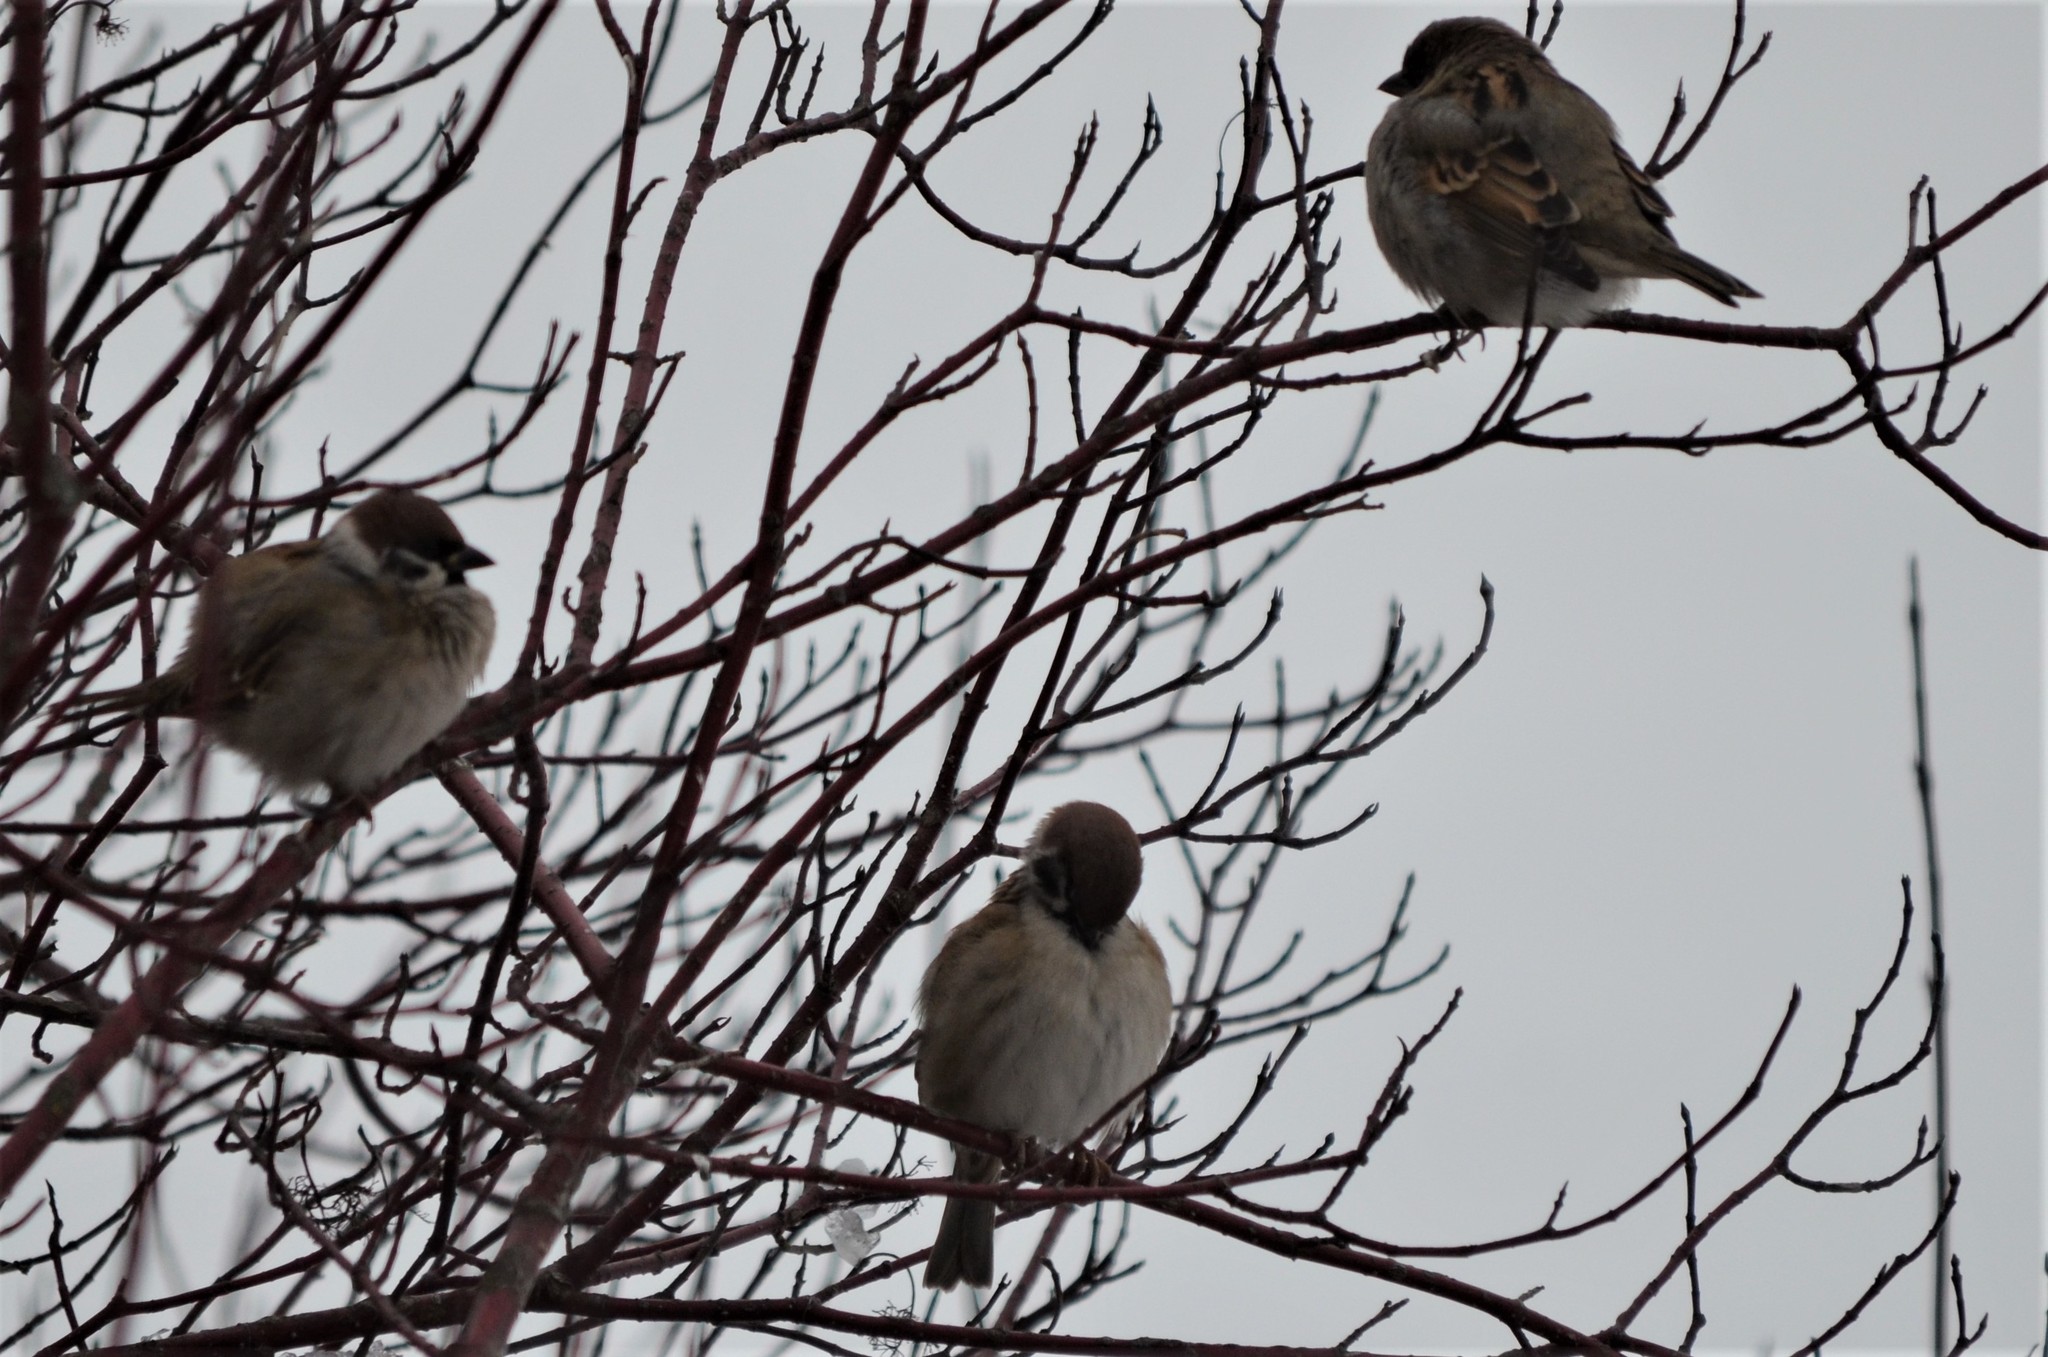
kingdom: Animalia
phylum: Chordata
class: Aves
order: Passeriformes
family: Passeridae
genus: Passer
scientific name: Passer montanus
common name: Eurasian tree sparrow
